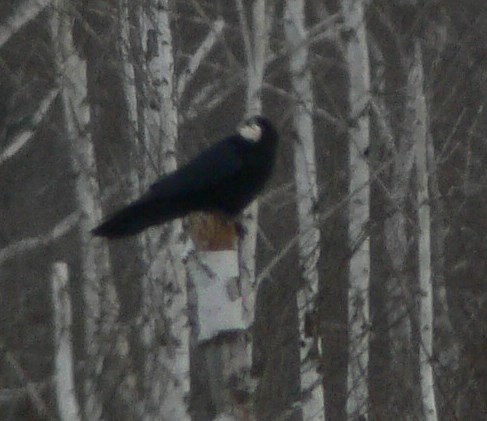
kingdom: Animalia
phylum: Chordata
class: Aves
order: Passeriformes
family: Corvidae
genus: Corvus
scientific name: Corvus corax
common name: Common raven
